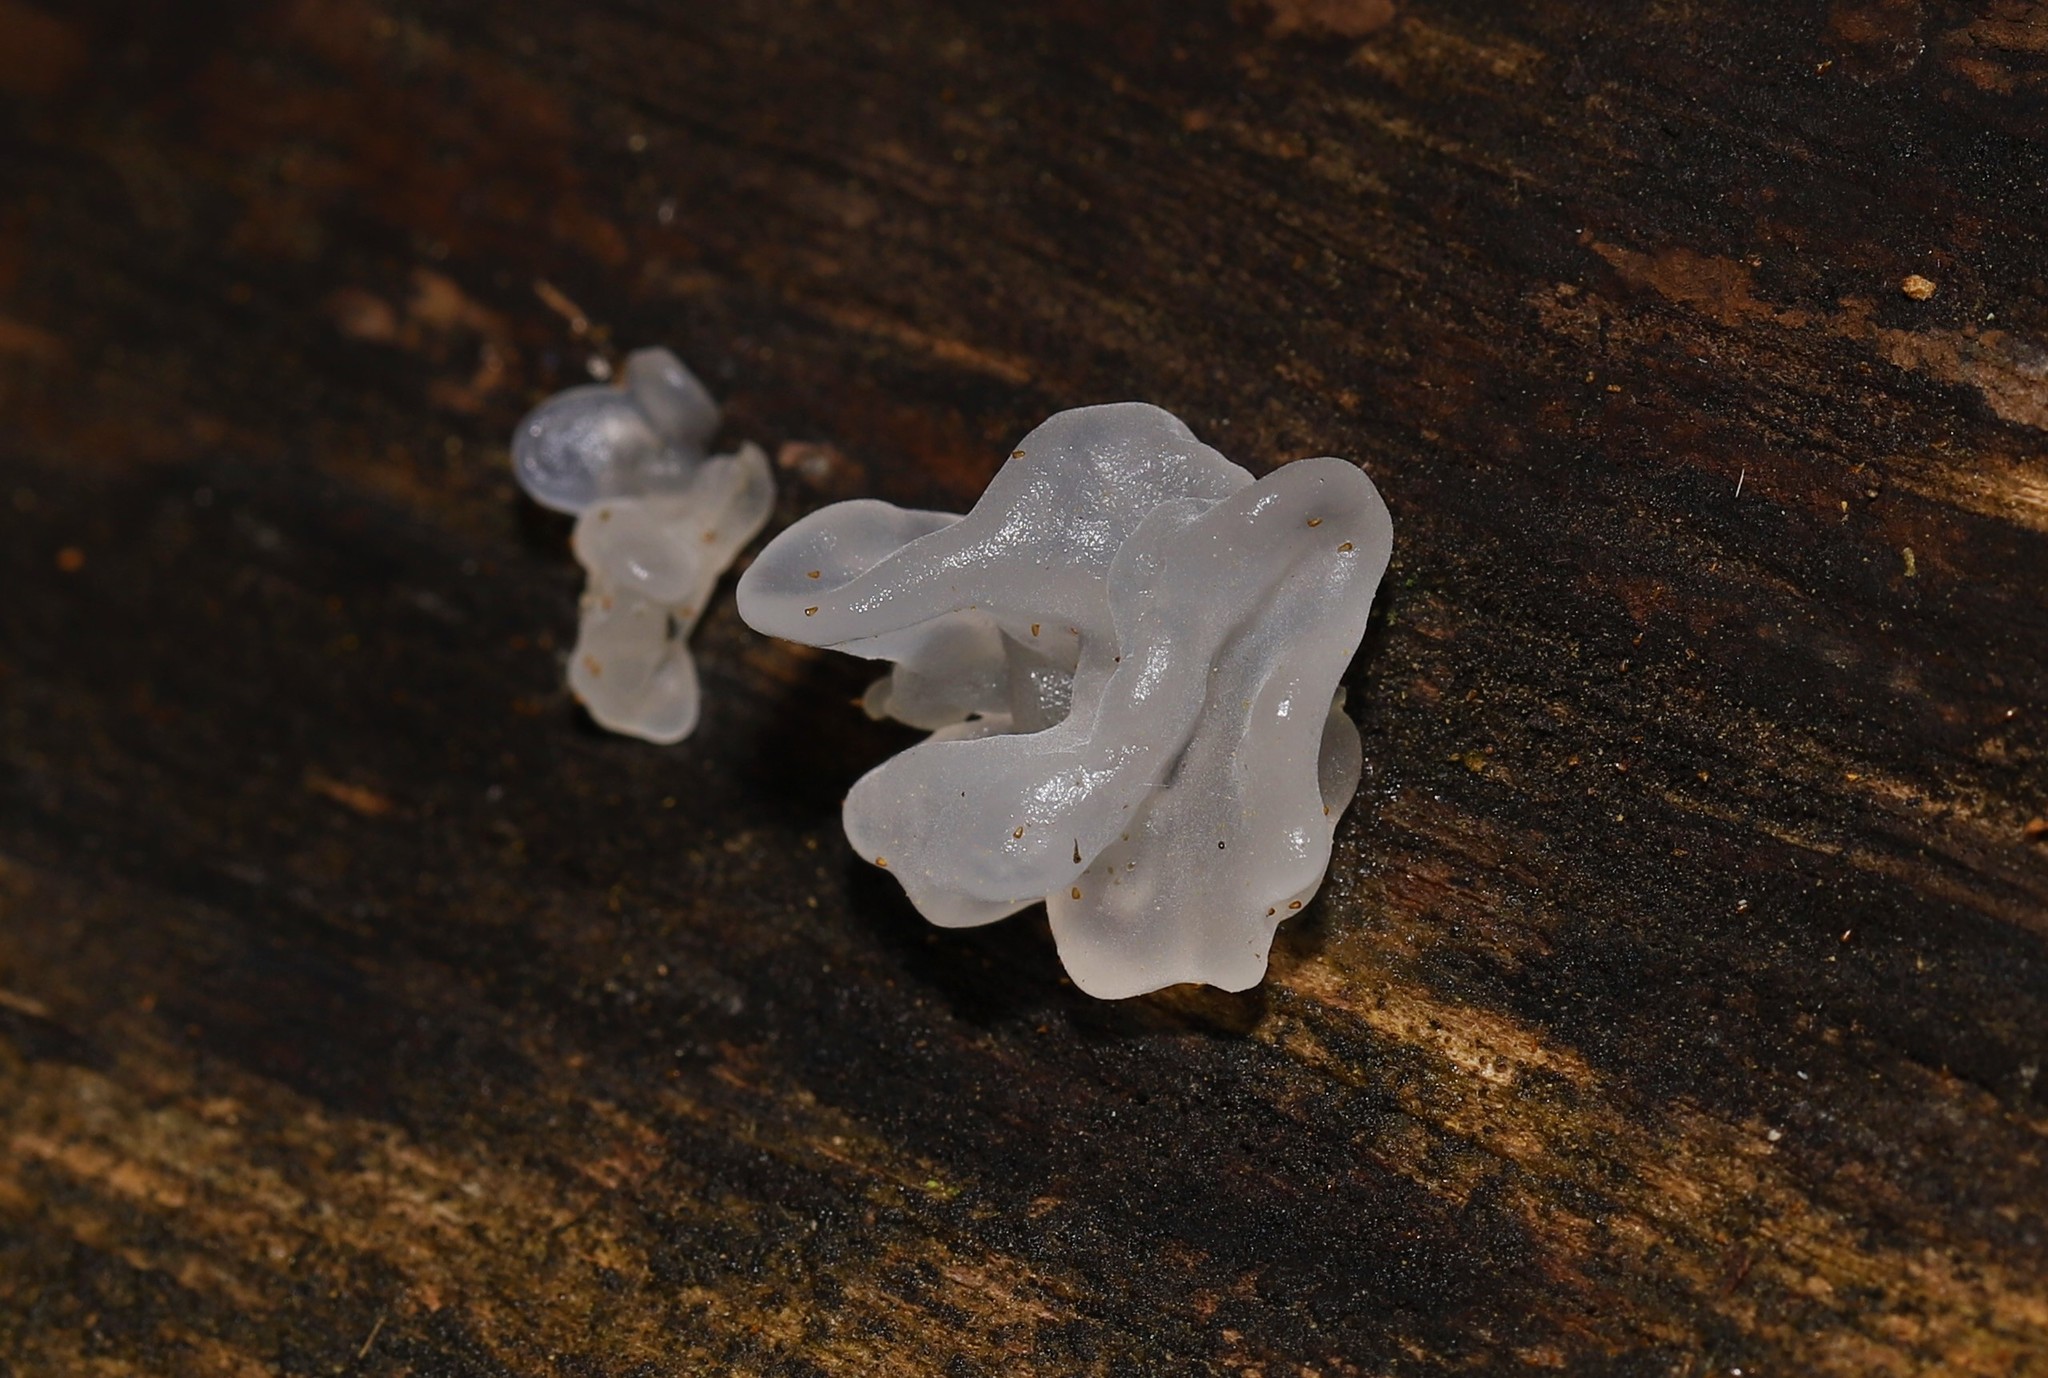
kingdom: Fungi
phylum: Basidiomycota
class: Tremellomycetes
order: Tremellales
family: Tremellaceae
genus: Tremella
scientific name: Tremella fuciformis
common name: Snow fungus
